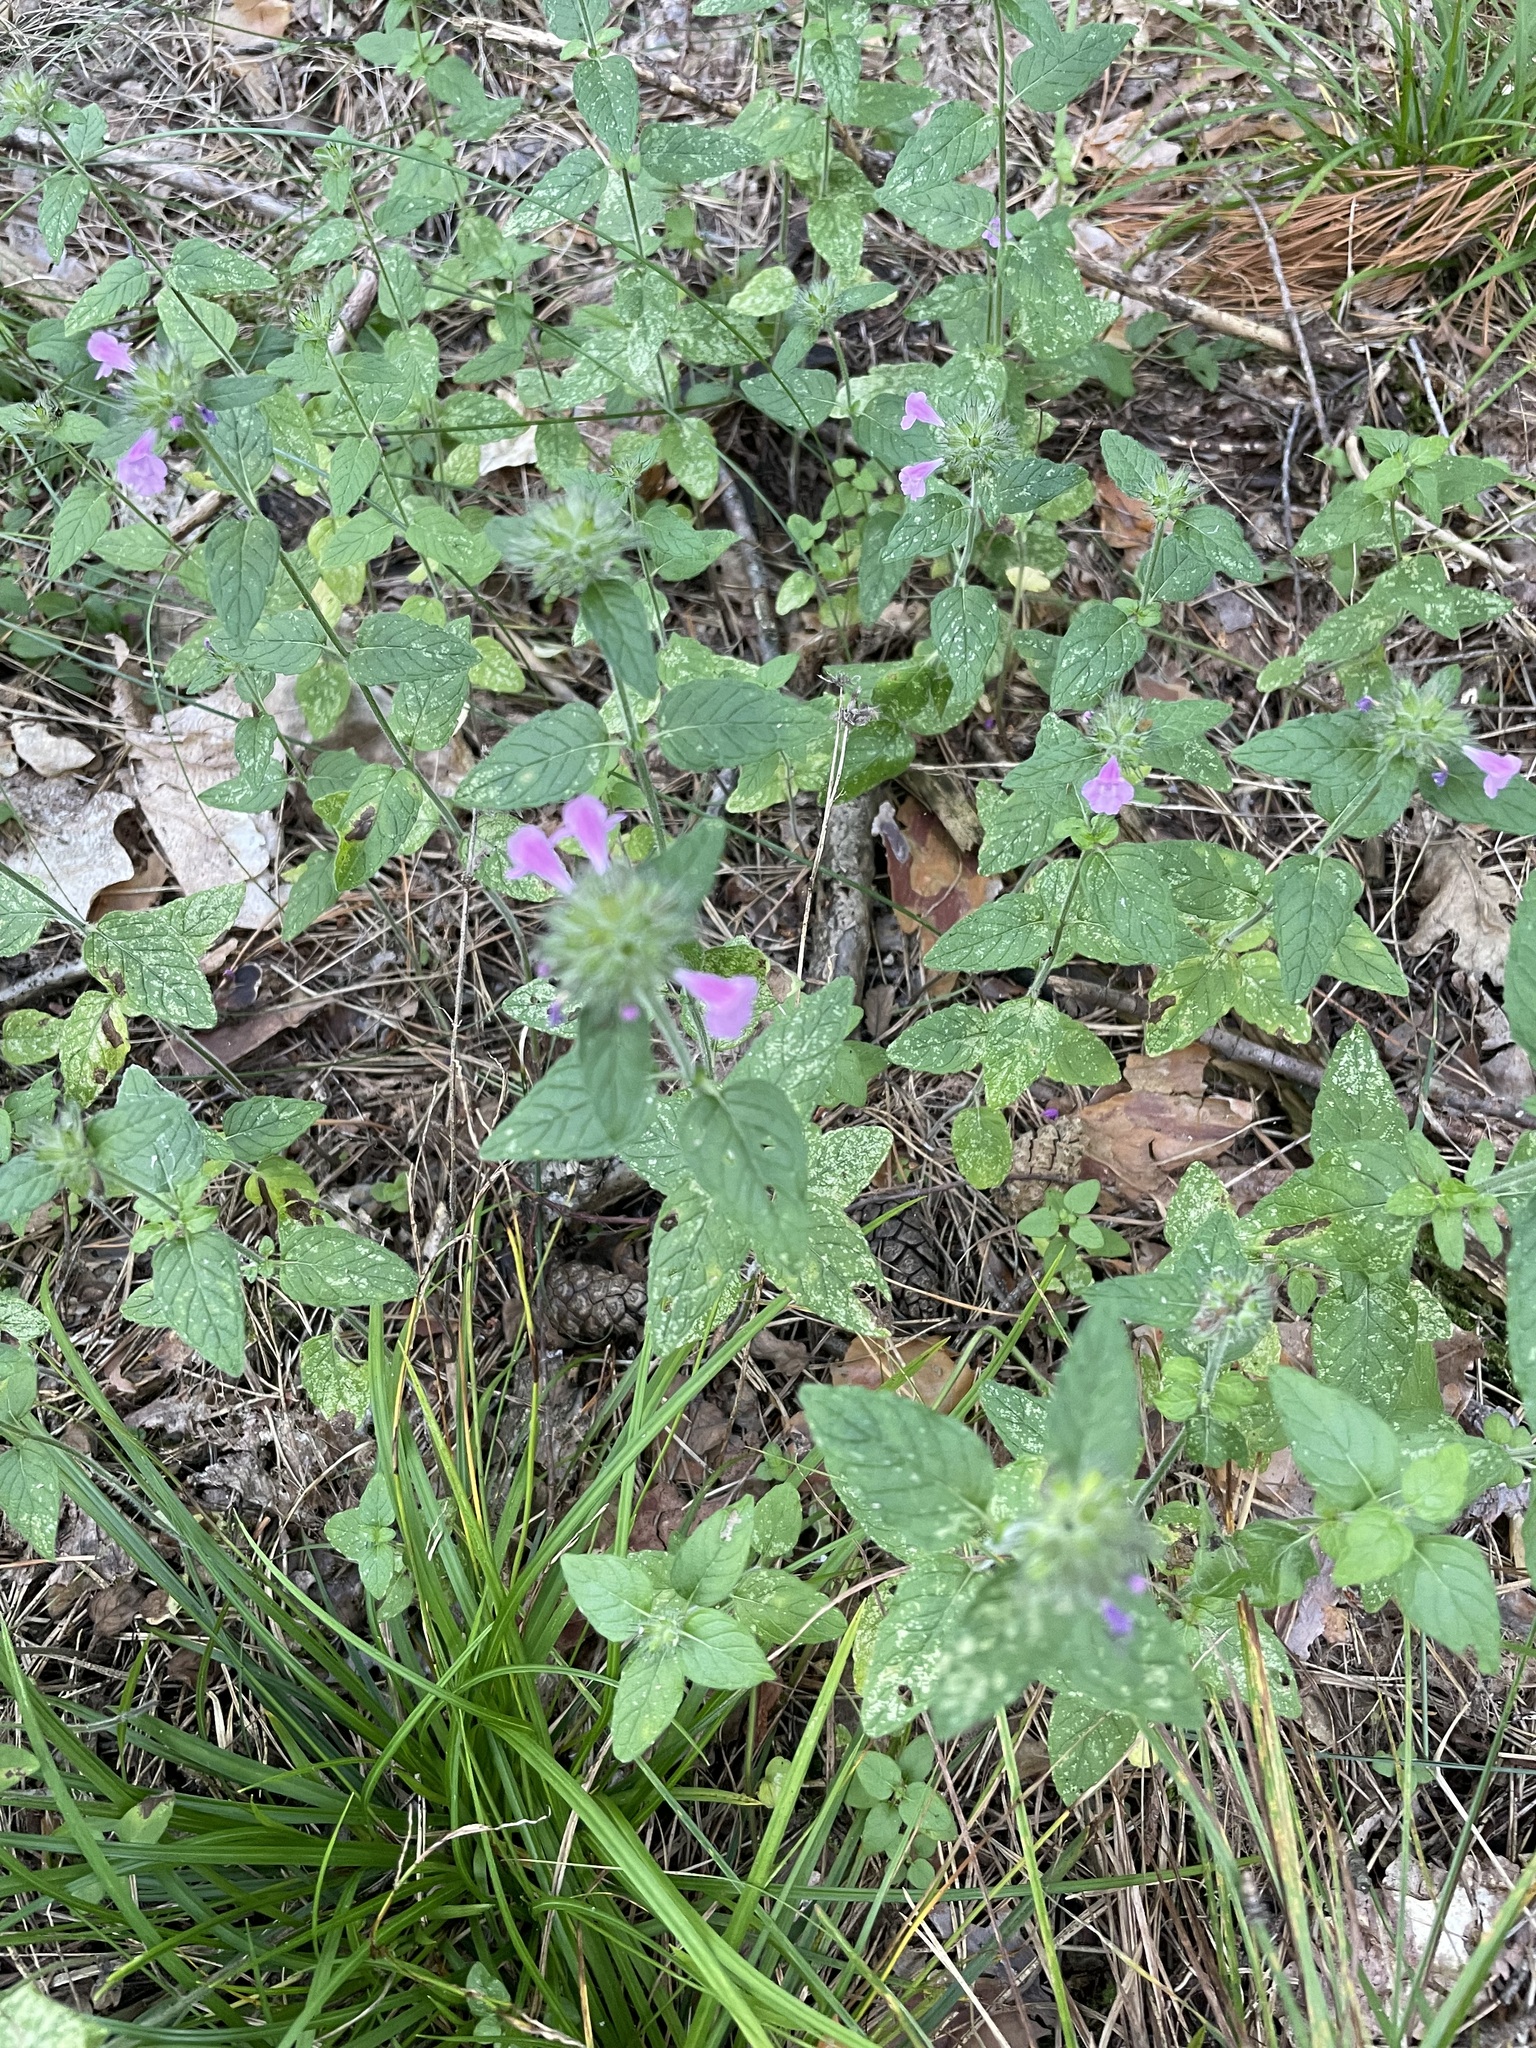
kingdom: Plantae
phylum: Tracheophyta
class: Magnoliopsida
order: Lamiales
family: Lamiaceae
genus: Clinopodium
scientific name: Clinopodium vulgare
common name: Wild basil
